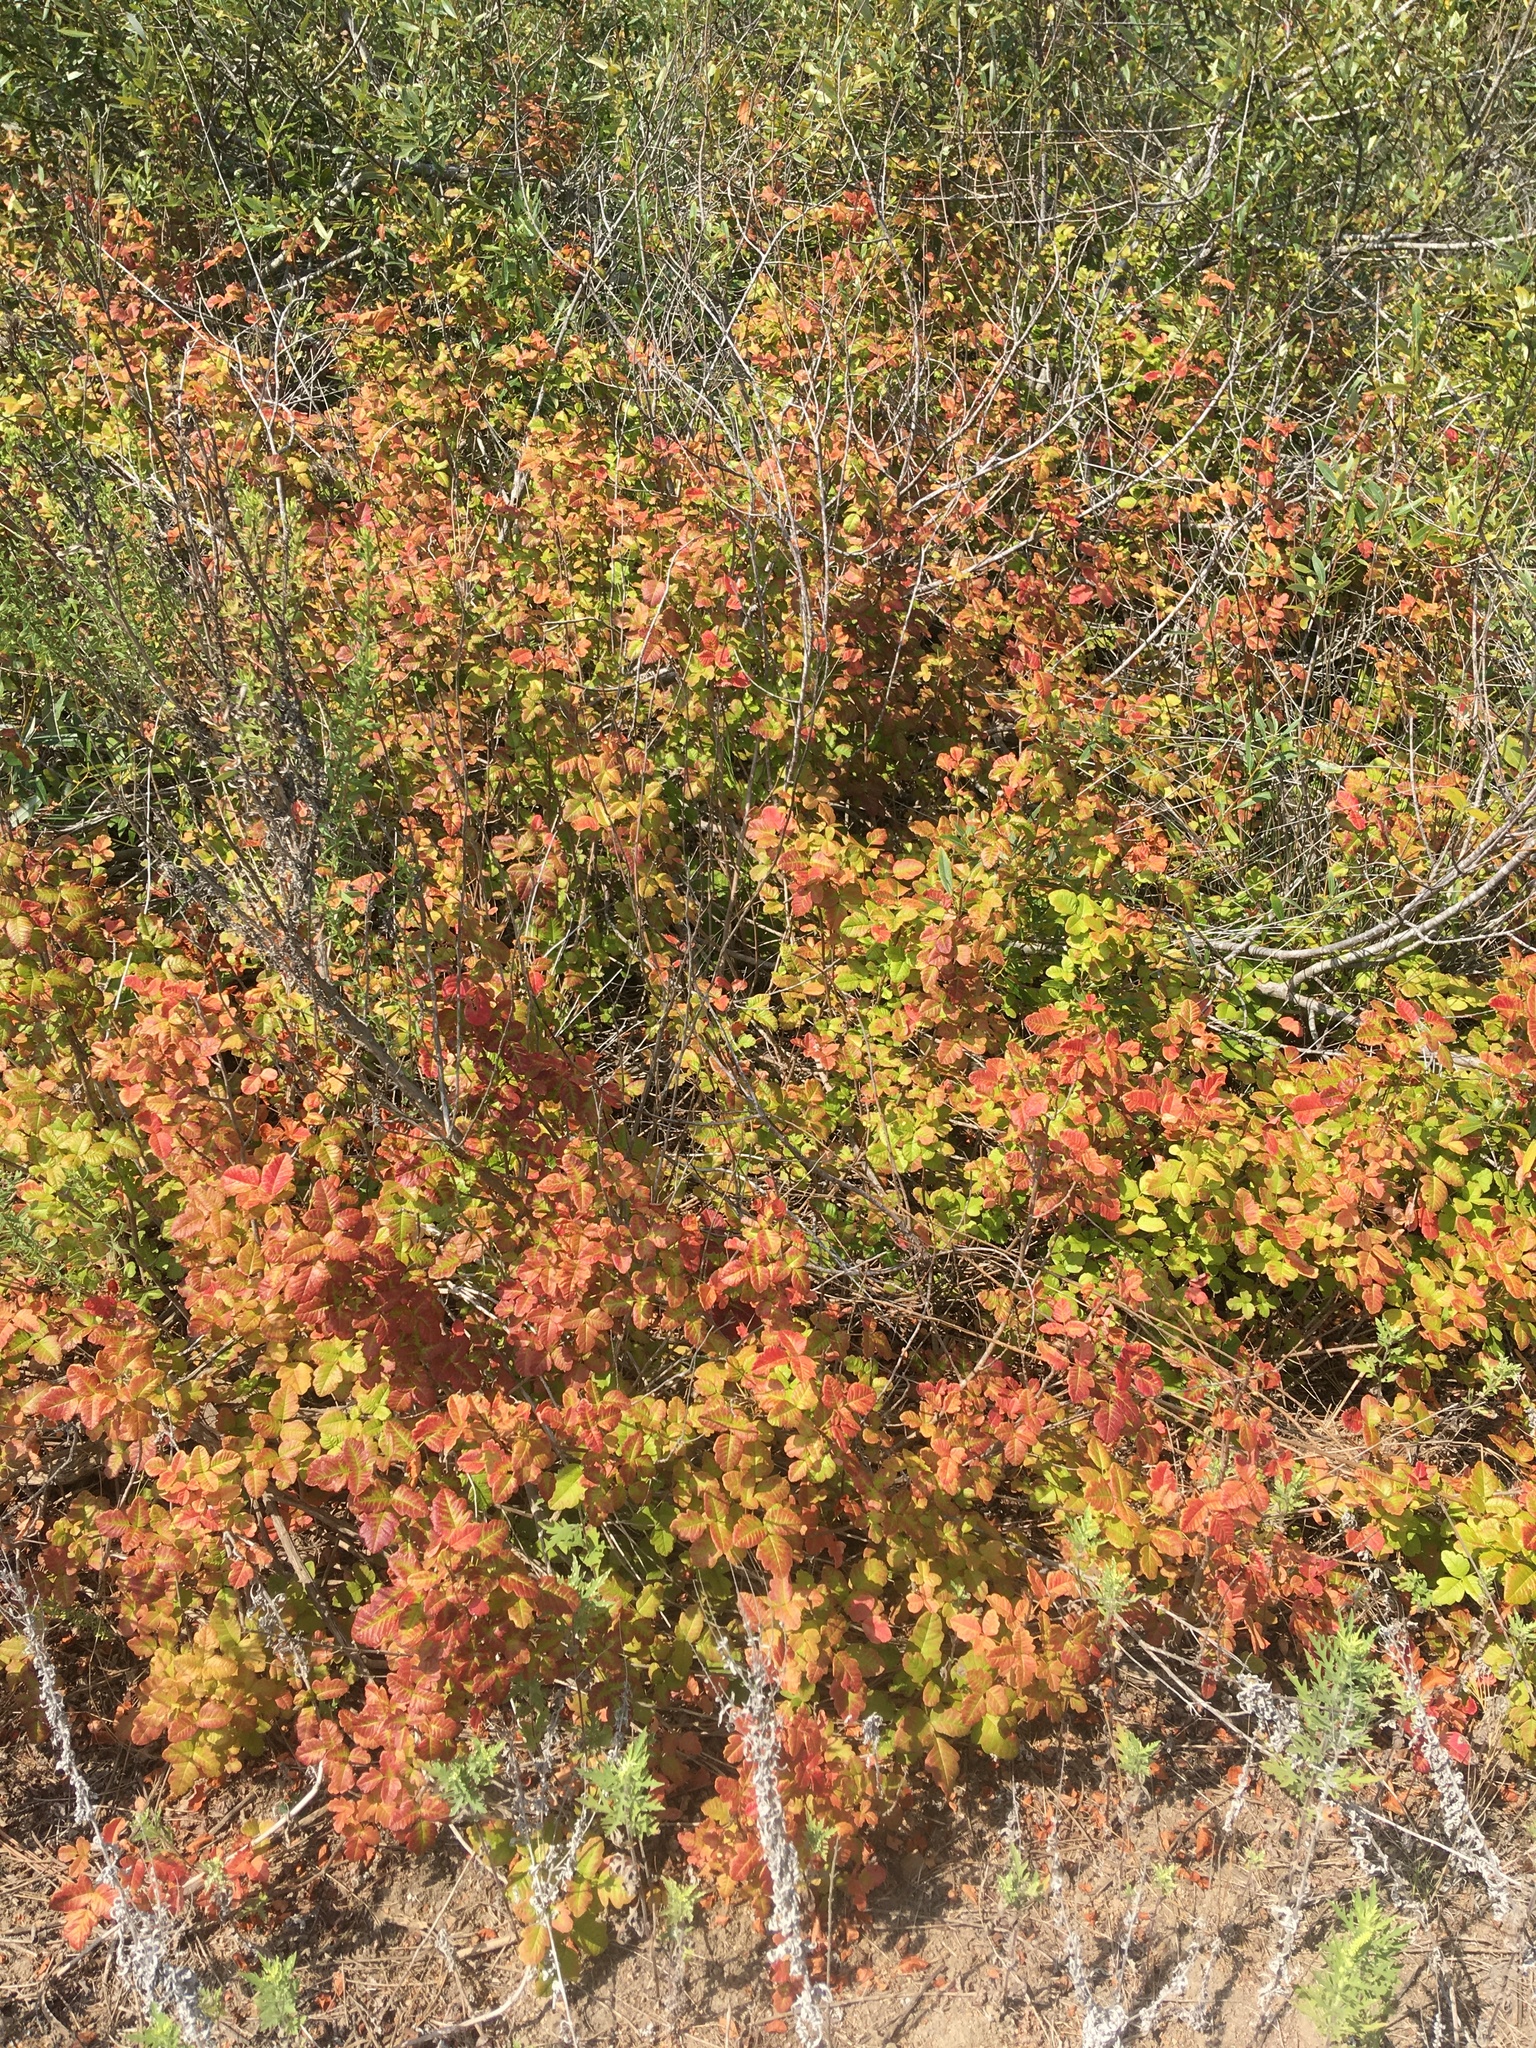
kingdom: Plantae
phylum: Tracheophyta
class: Magnoliopsida
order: Sapindales
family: Anacardiaceae
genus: Toxicodendron
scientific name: Toxicodendron diversilobum
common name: Pacific poison-oak
